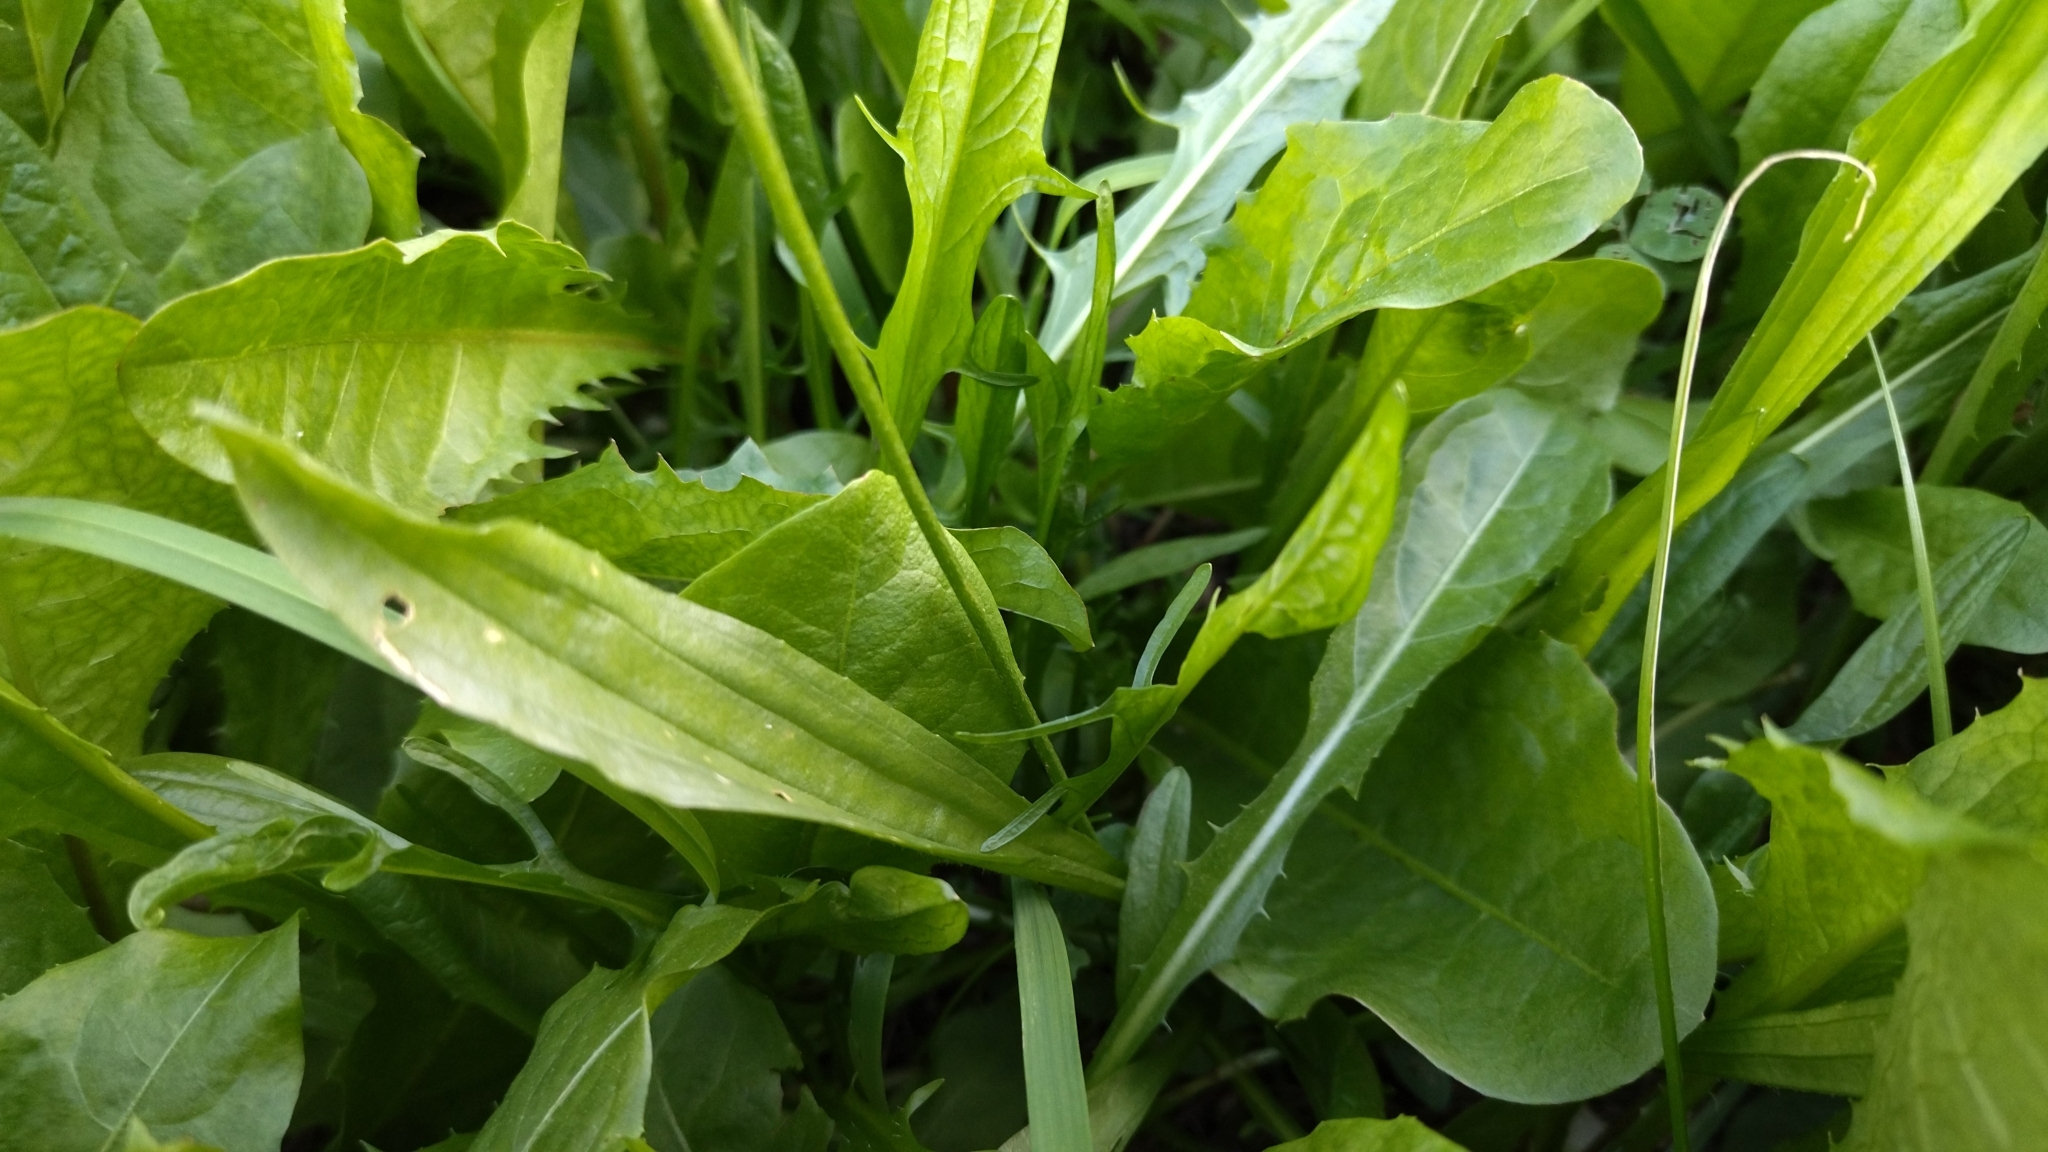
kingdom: Plantae
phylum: Tracheophyta
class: Magnoliopsida
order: Lamiales
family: Plantaginaceae
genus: Plantago
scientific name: Plantago lanceolata
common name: Ribwort plantain
